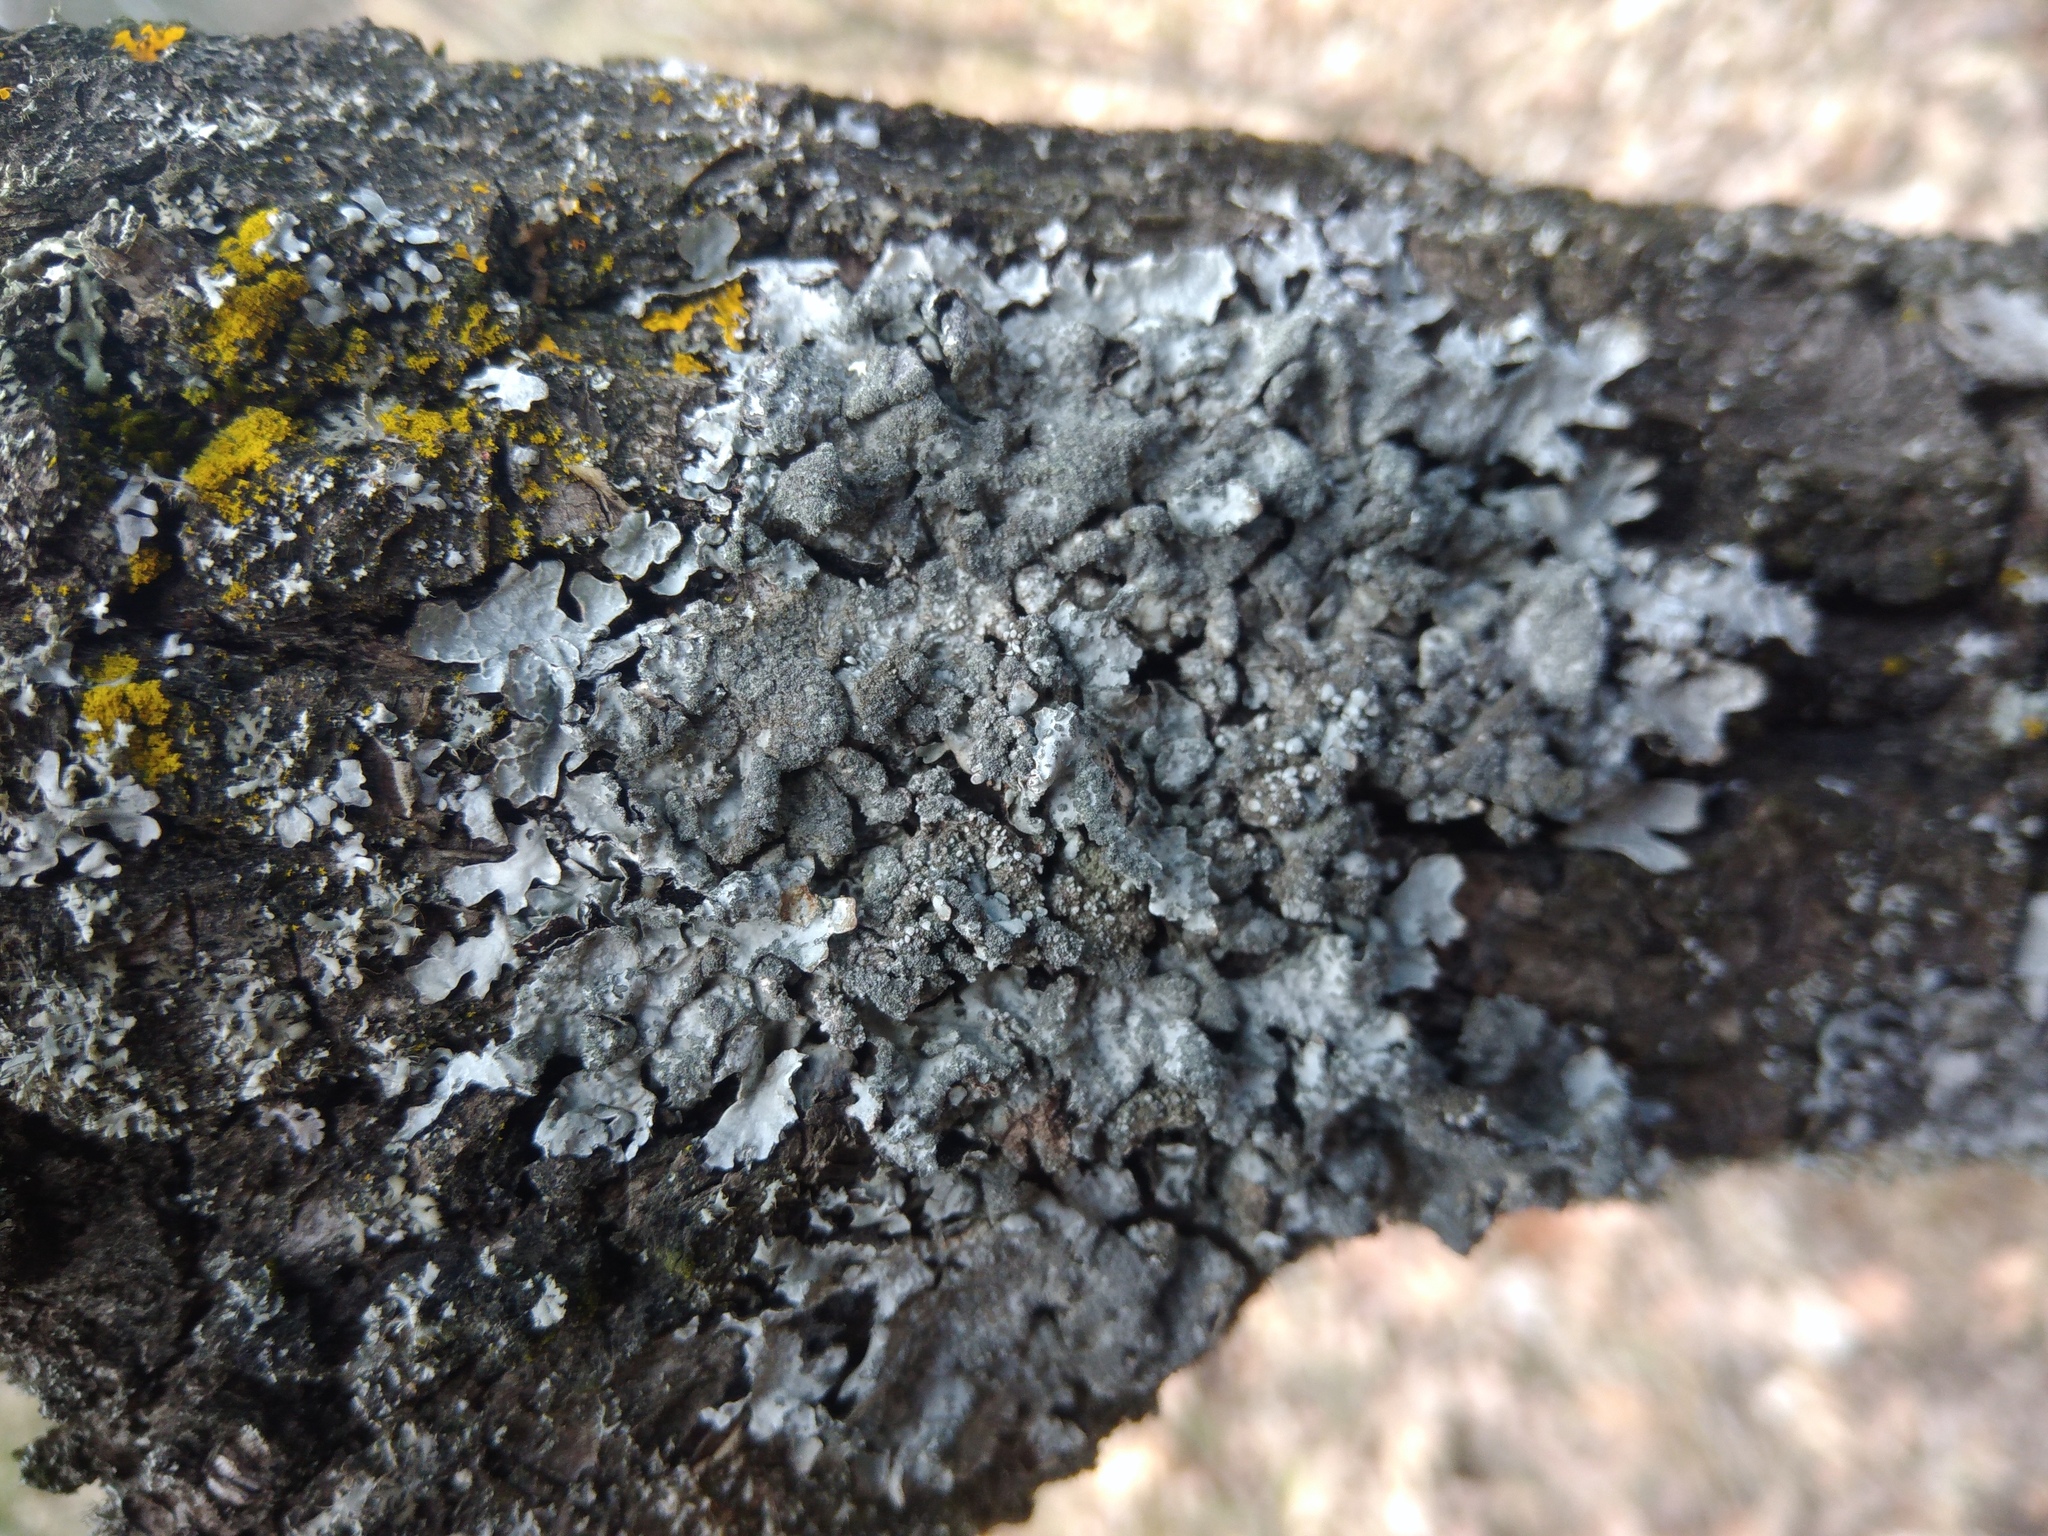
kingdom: Fungi
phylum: Ascomycota
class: Lecanoromycetes
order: Lecanorales
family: Parmeliaceae
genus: Parmelia
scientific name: Parmelia sulcata
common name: Netted shield lichen
